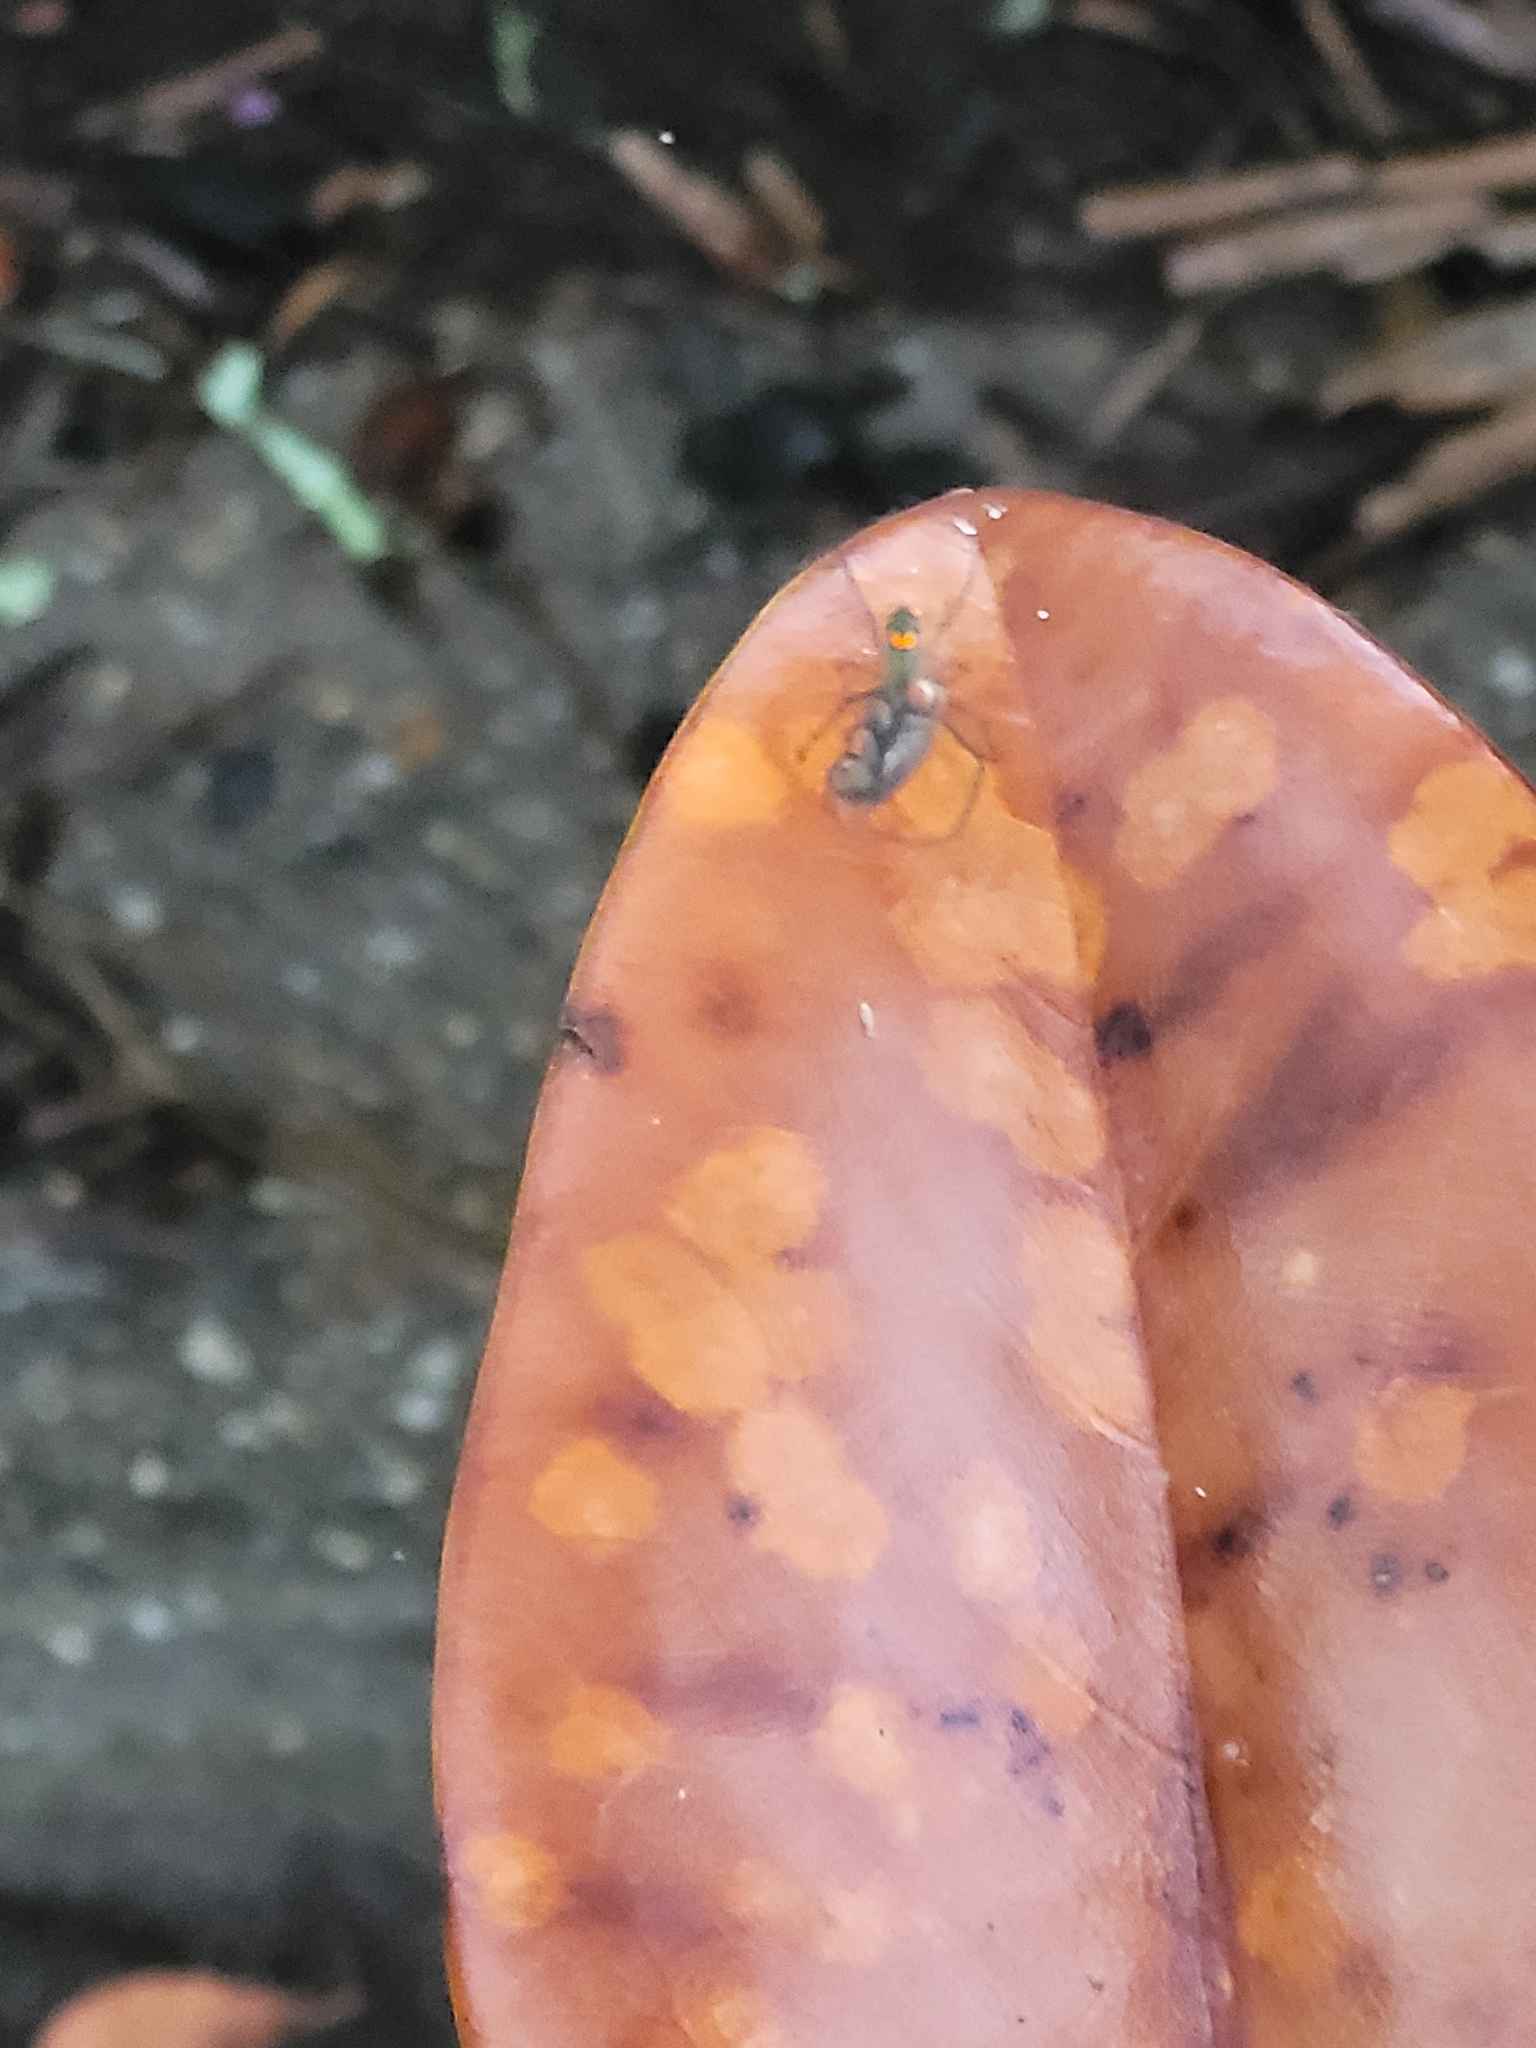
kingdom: Animalia
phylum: Arthropoda
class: Arachnida
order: Araneae
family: Tetragnathidae
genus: Leucauge
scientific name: Leucauge argyrobapta
